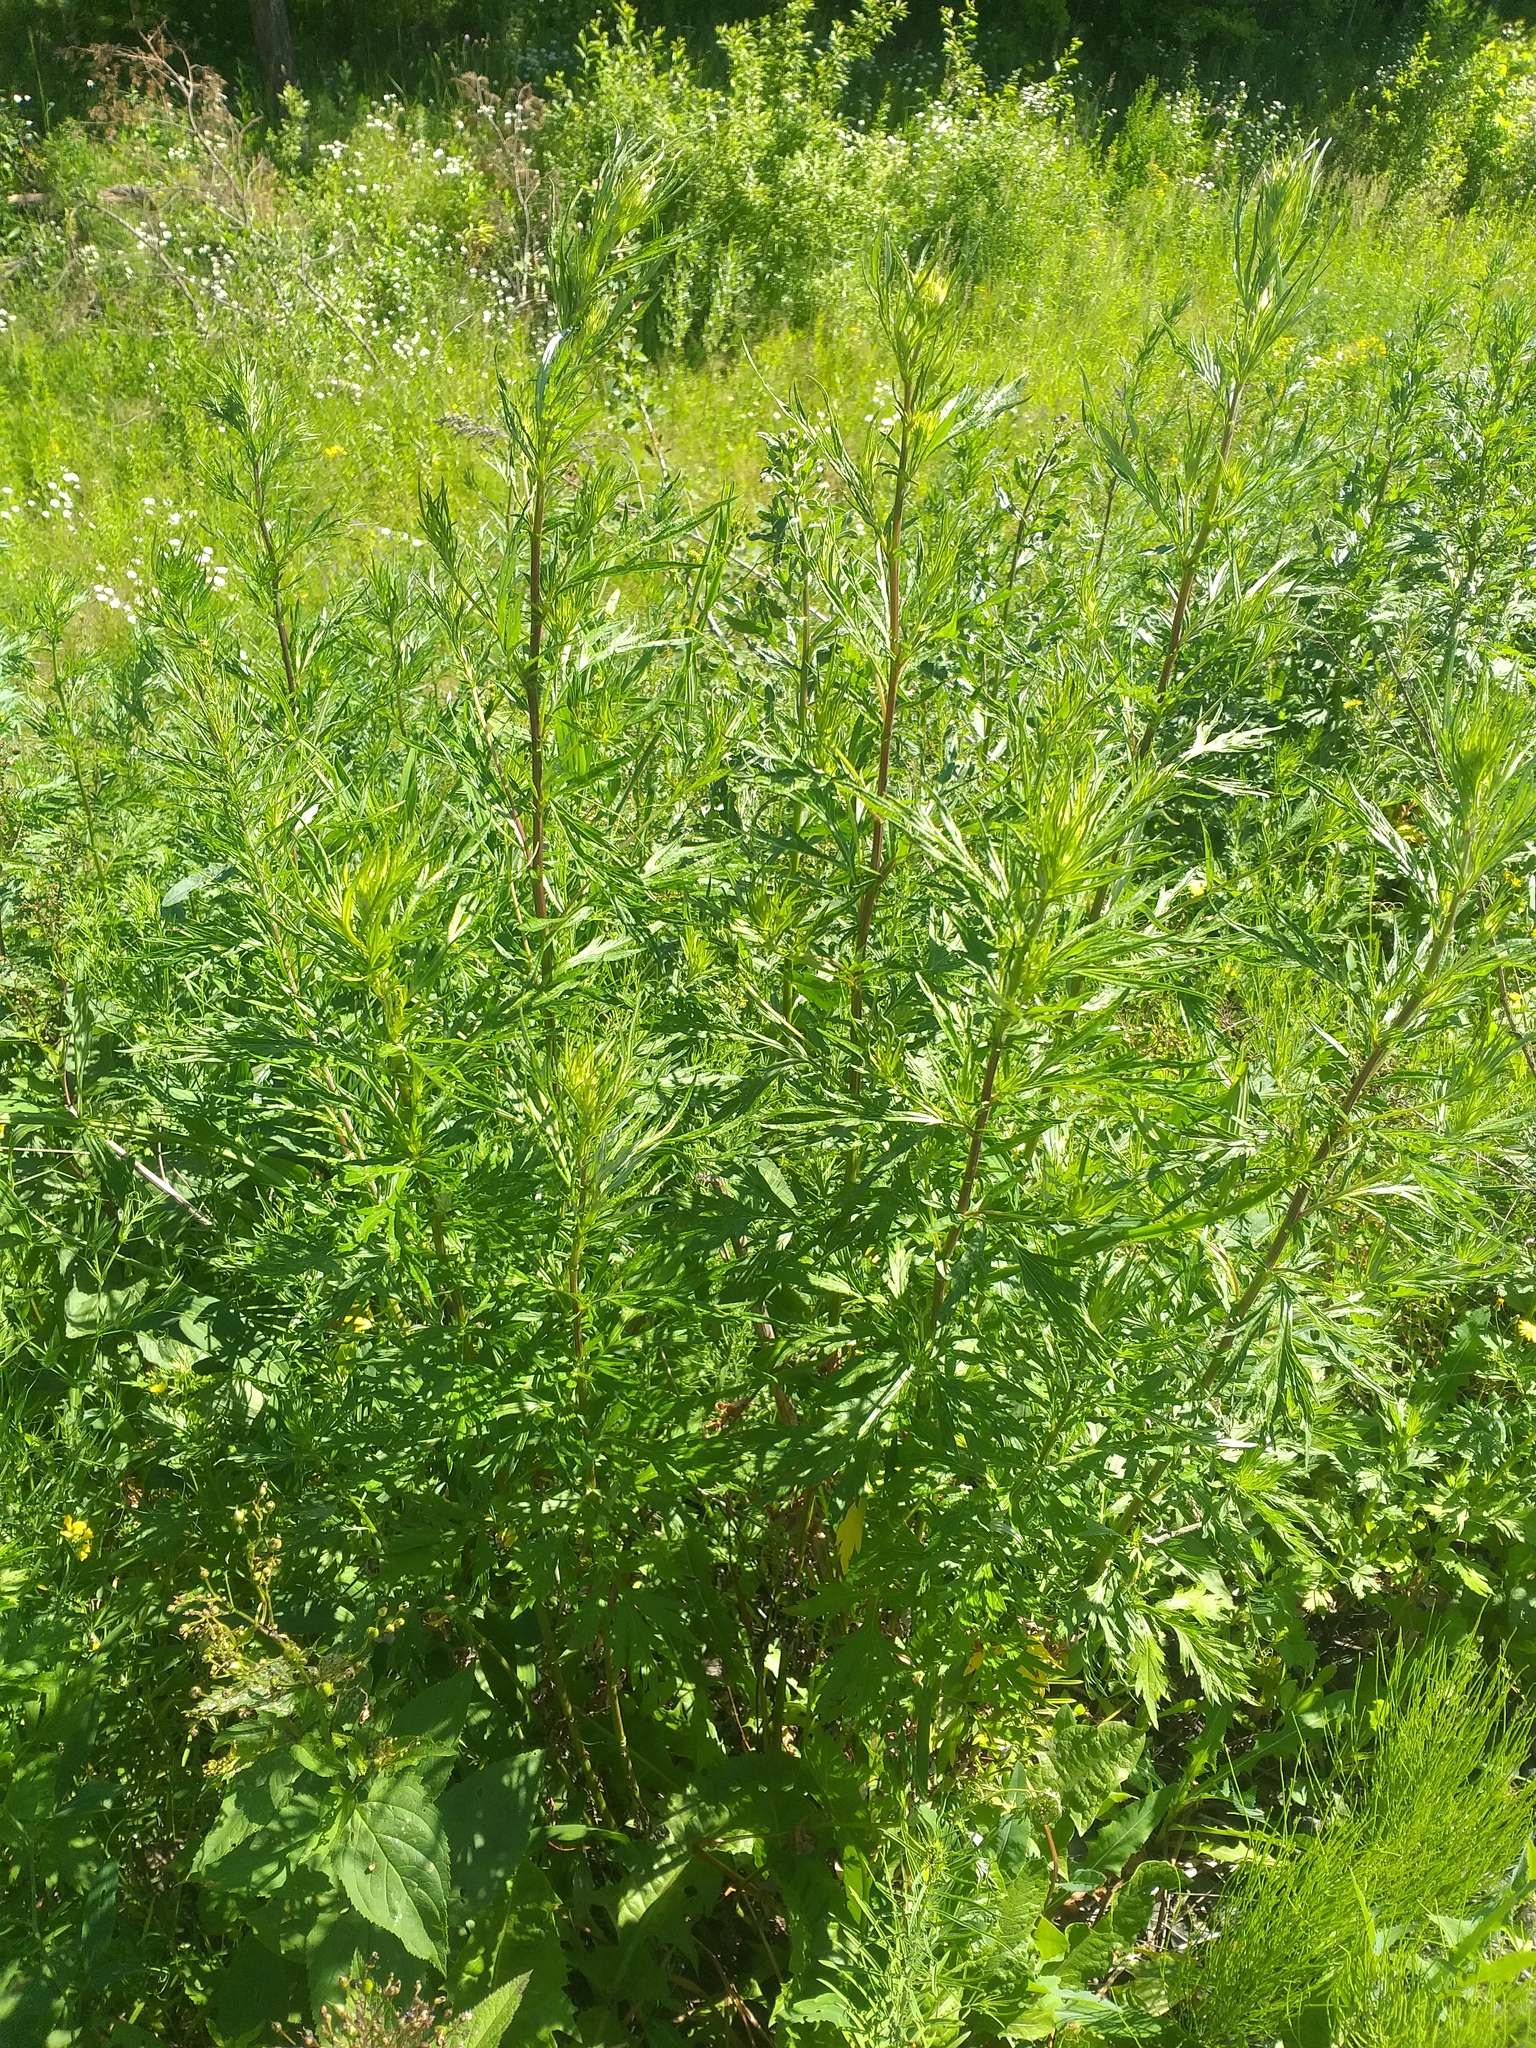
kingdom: Plantae
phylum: Tracheophyta
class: Magnoliopsida
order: Asterales
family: Asteraceae
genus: Artemisia
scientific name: Artemisia vulgaris
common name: Mugwort
